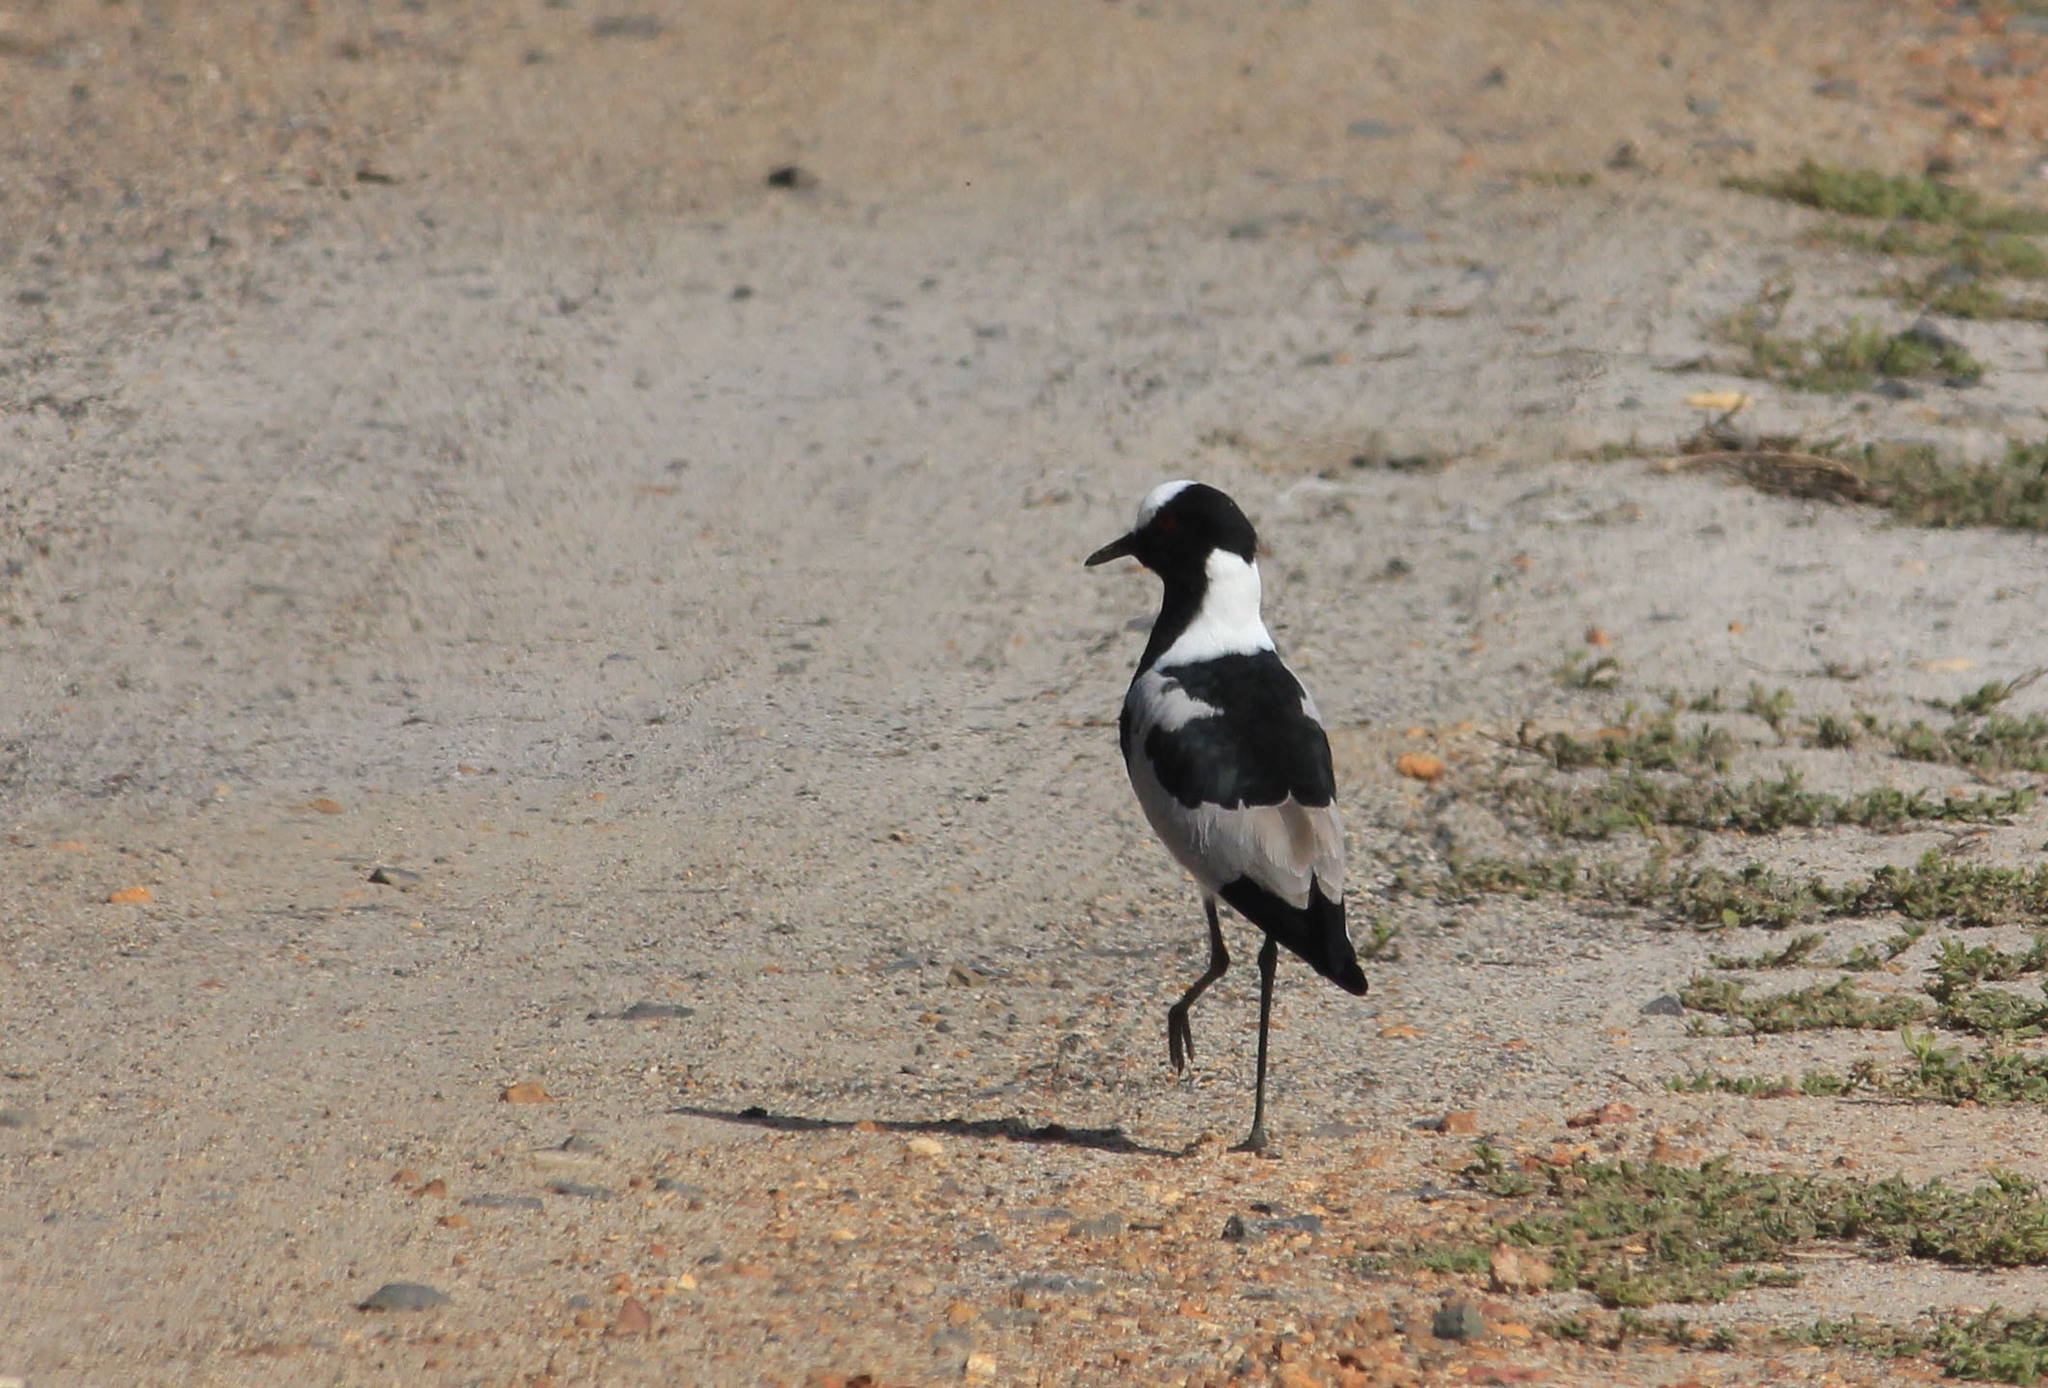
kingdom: Animalia
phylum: Chordata
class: Aves
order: Charadriiformes
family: Charadriidae
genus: Vanellus
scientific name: Vanellus armatus
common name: Blacksmith lapwing
